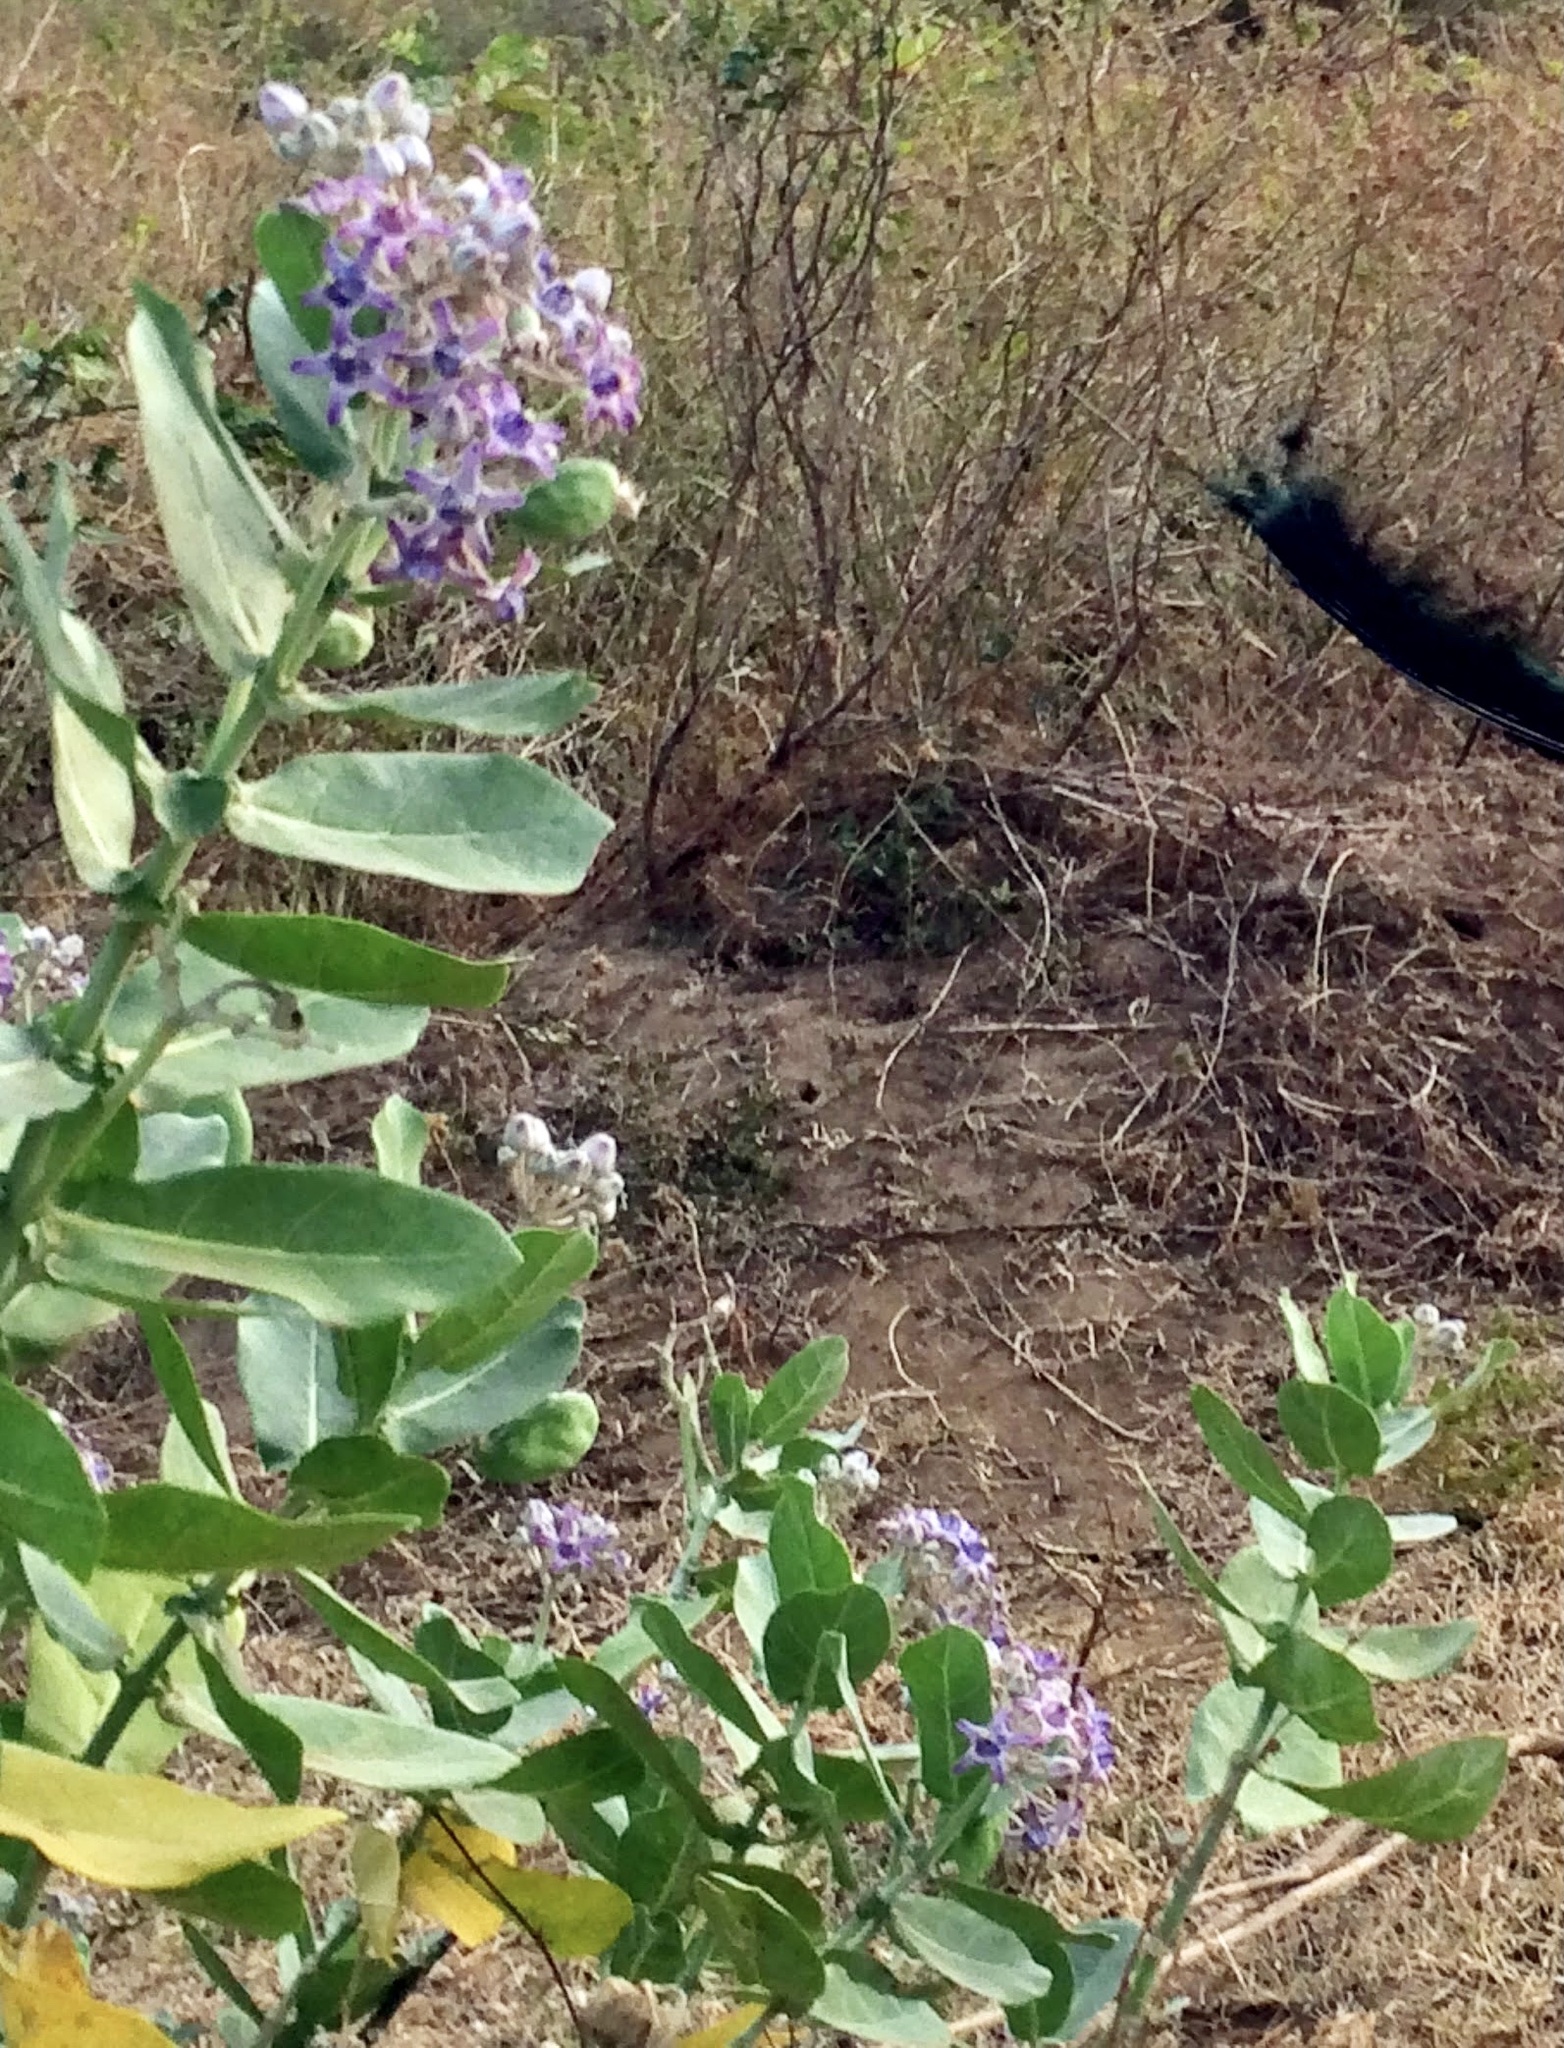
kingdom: Plantae
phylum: Tracheophyta
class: Magnoliopsida
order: Gentianales
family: Apocynaceae
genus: Calotropis
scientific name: Calotropis gigantea
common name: Crown flower
